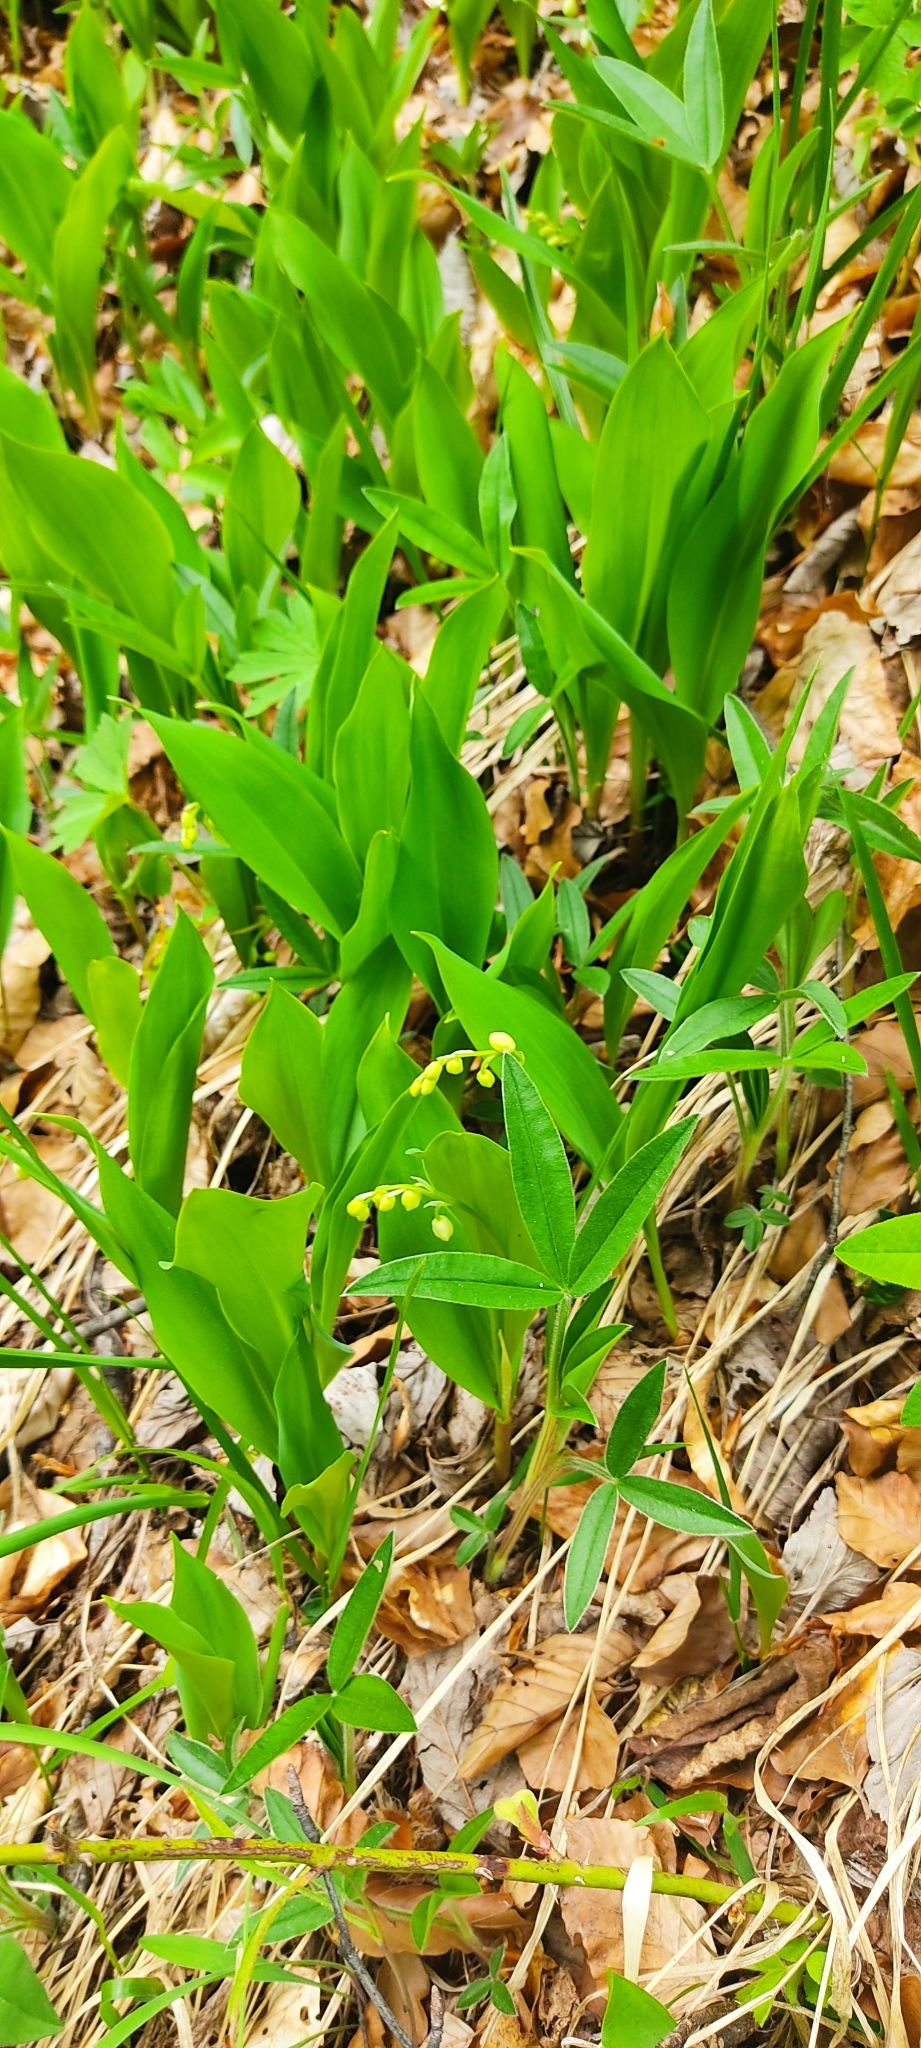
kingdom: Plantae
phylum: Tracheophyta
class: Liliopsida
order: Asparagales
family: Asparagaceae
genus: Convallaria
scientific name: Convallaria majalis
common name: Lily-of-the-valley
